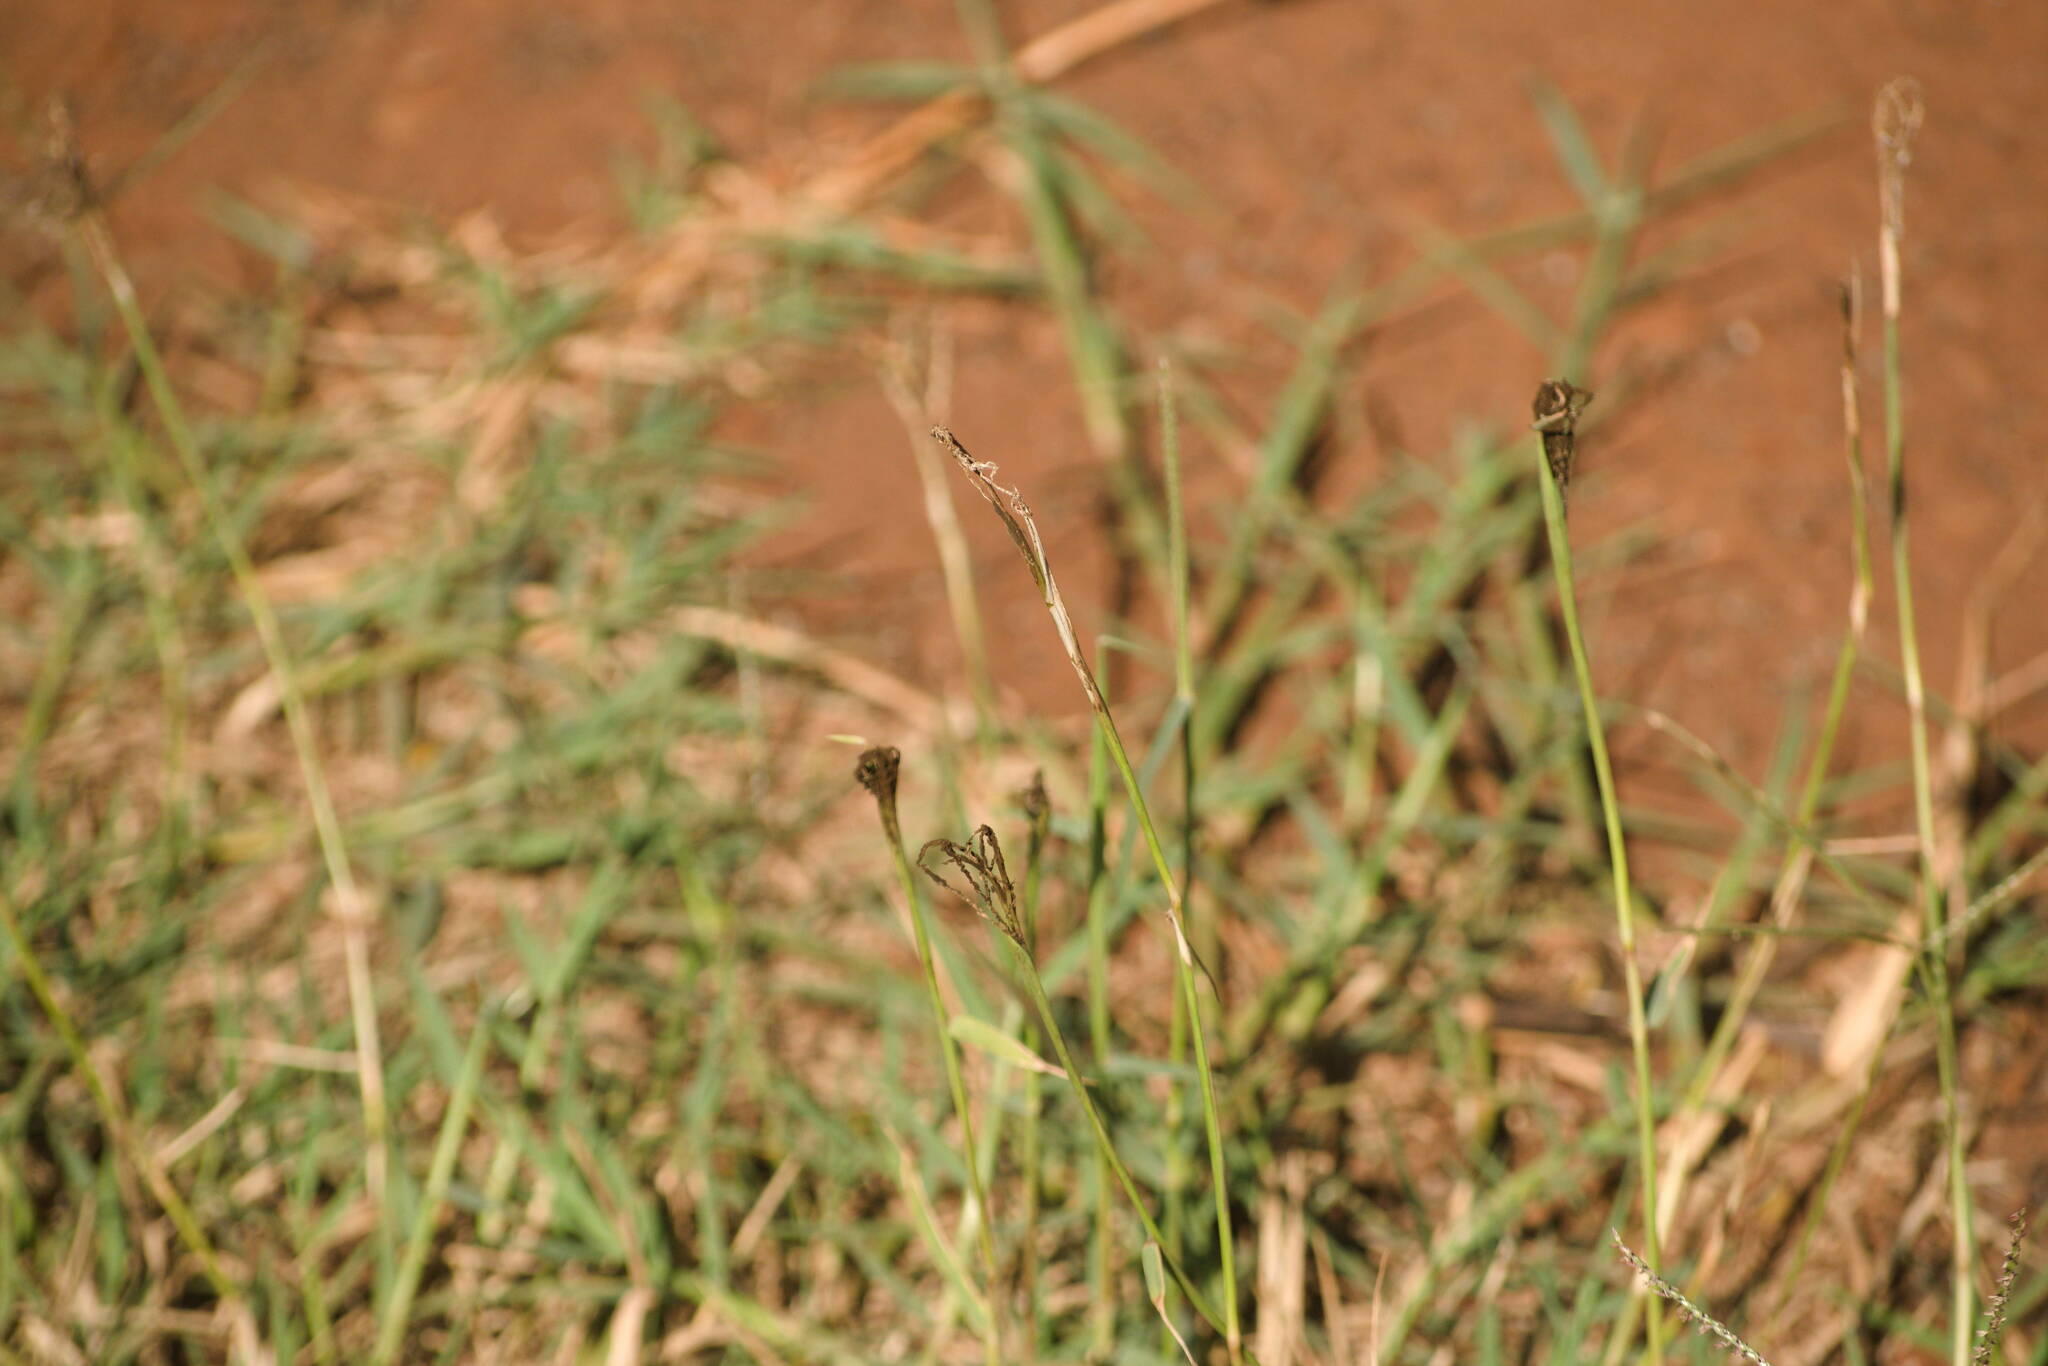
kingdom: Fungi
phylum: Basidiomycota
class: Ustilaginomycetes
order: Ustilaginales
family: Ustilaginaceae
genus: Ustilago
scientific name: Ustilago cynodontis
